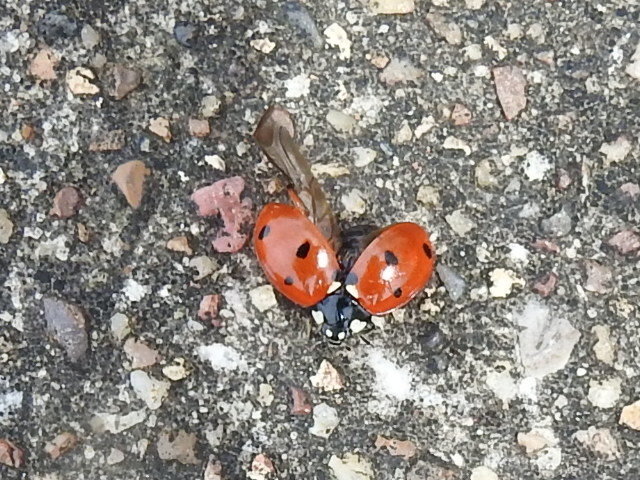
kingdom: Animalia
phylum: Arthropoda
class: Insecta
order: Coleoptera
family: Coccinellidae
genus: Coccinella
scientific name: Coccinella septempunctata
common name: Sevenspotted lady beetle
